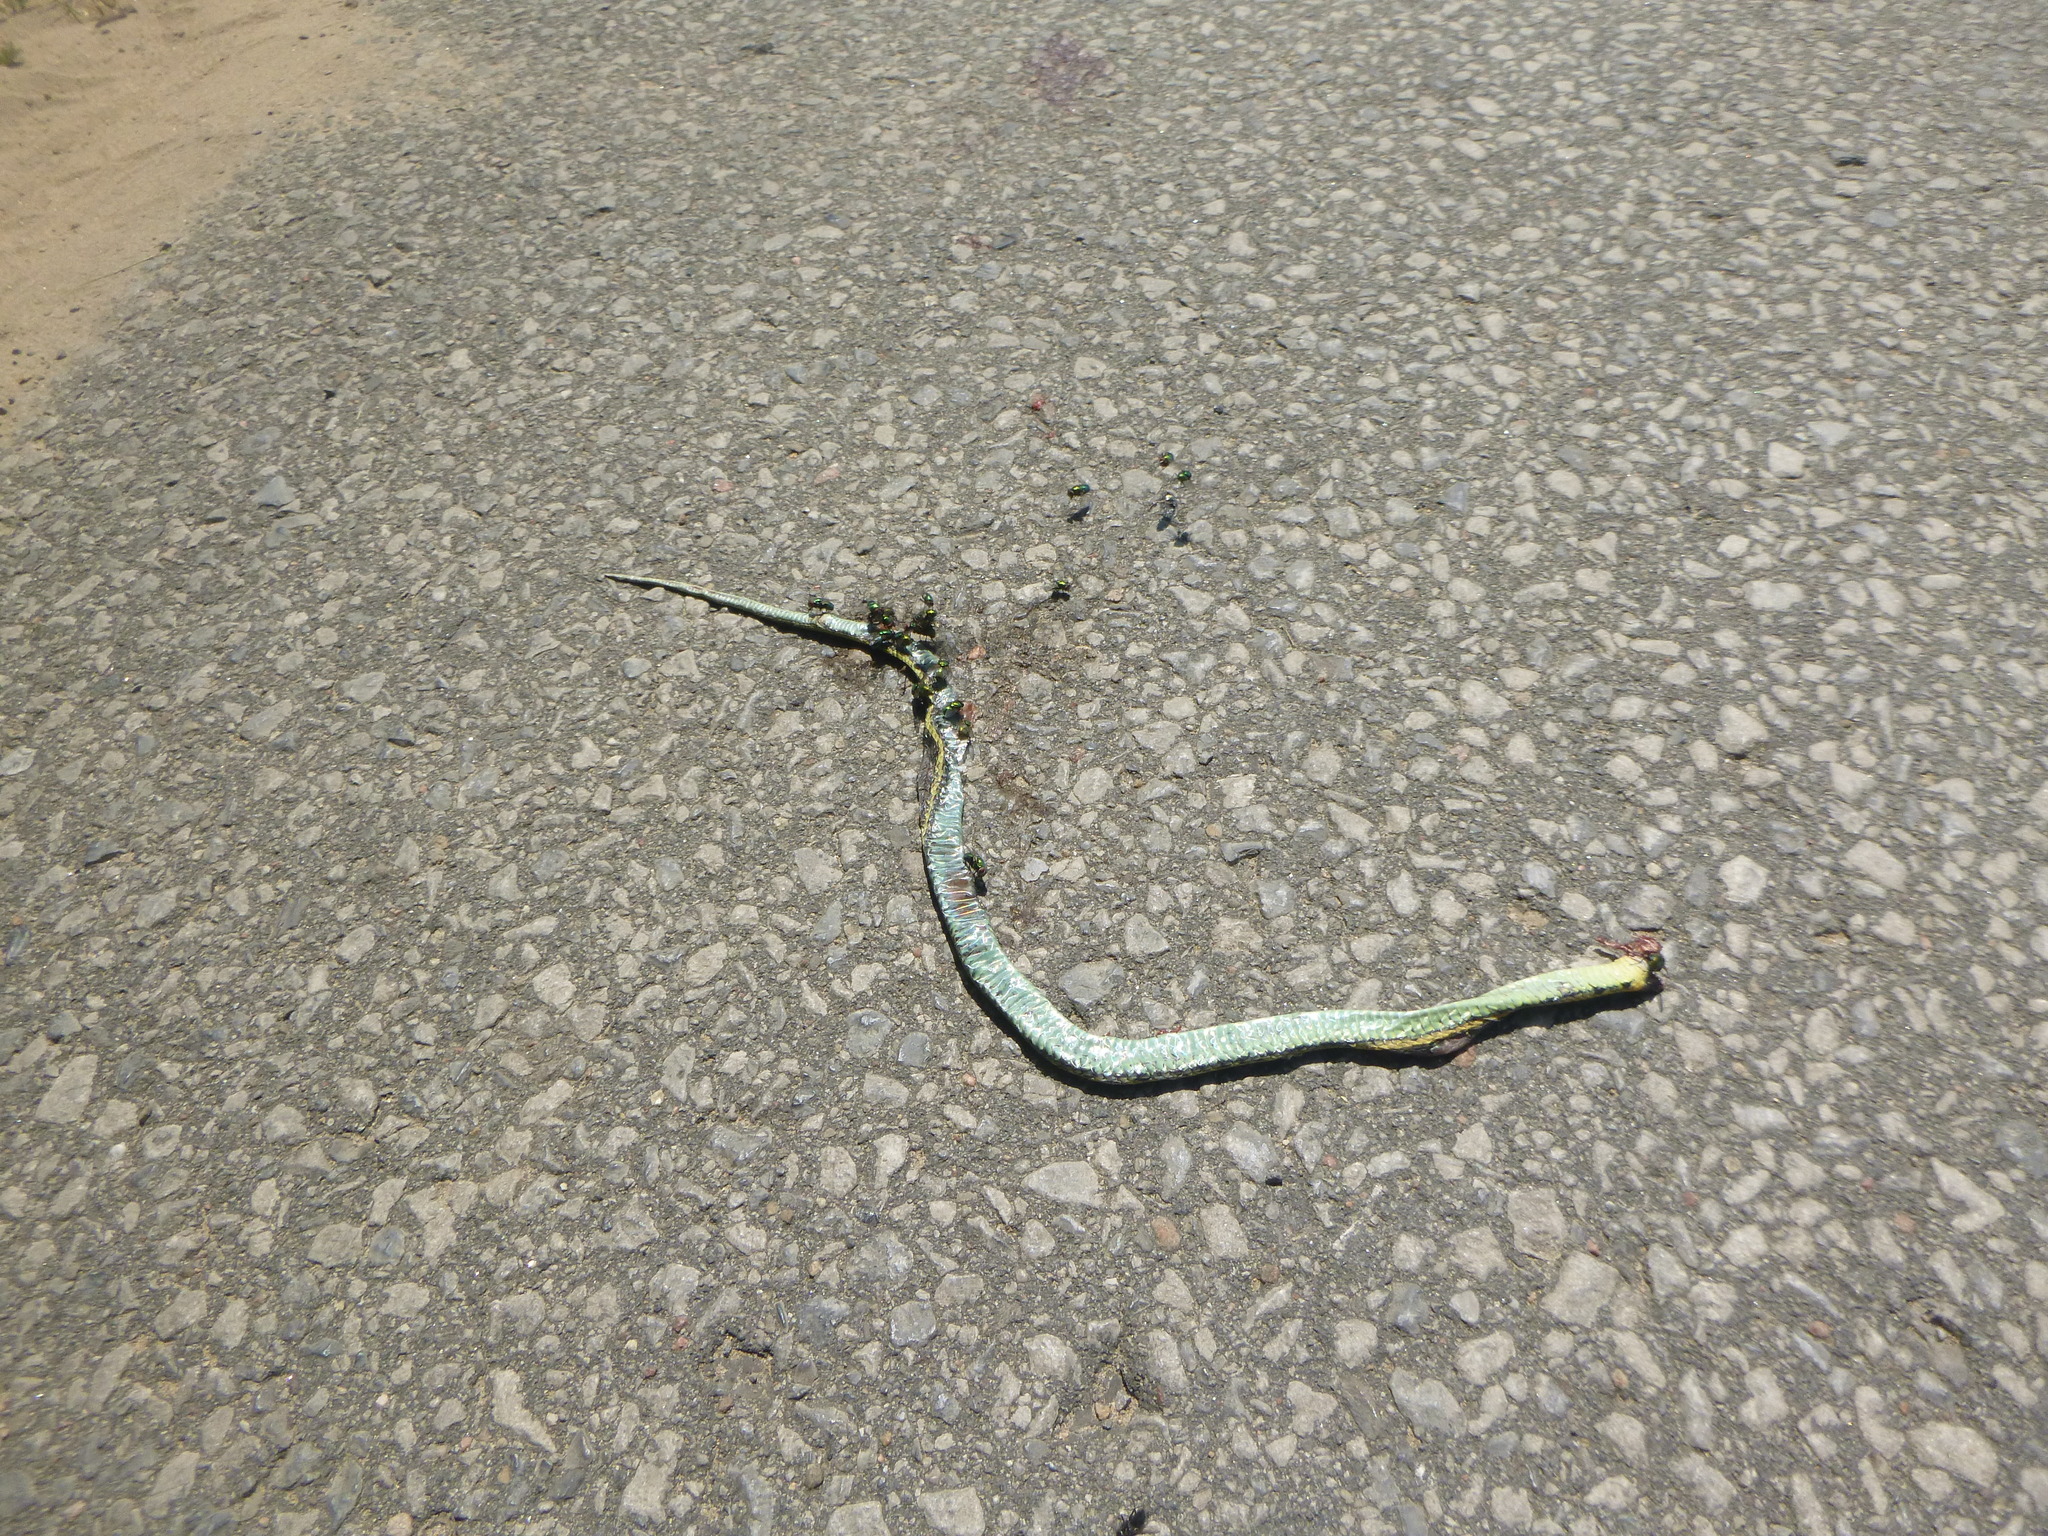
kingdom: Animalia
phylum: Chordata
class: Squamata
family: Colubridae
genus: Thamnophis
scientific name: Thamnophis sirtalis
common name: Common garter snake
